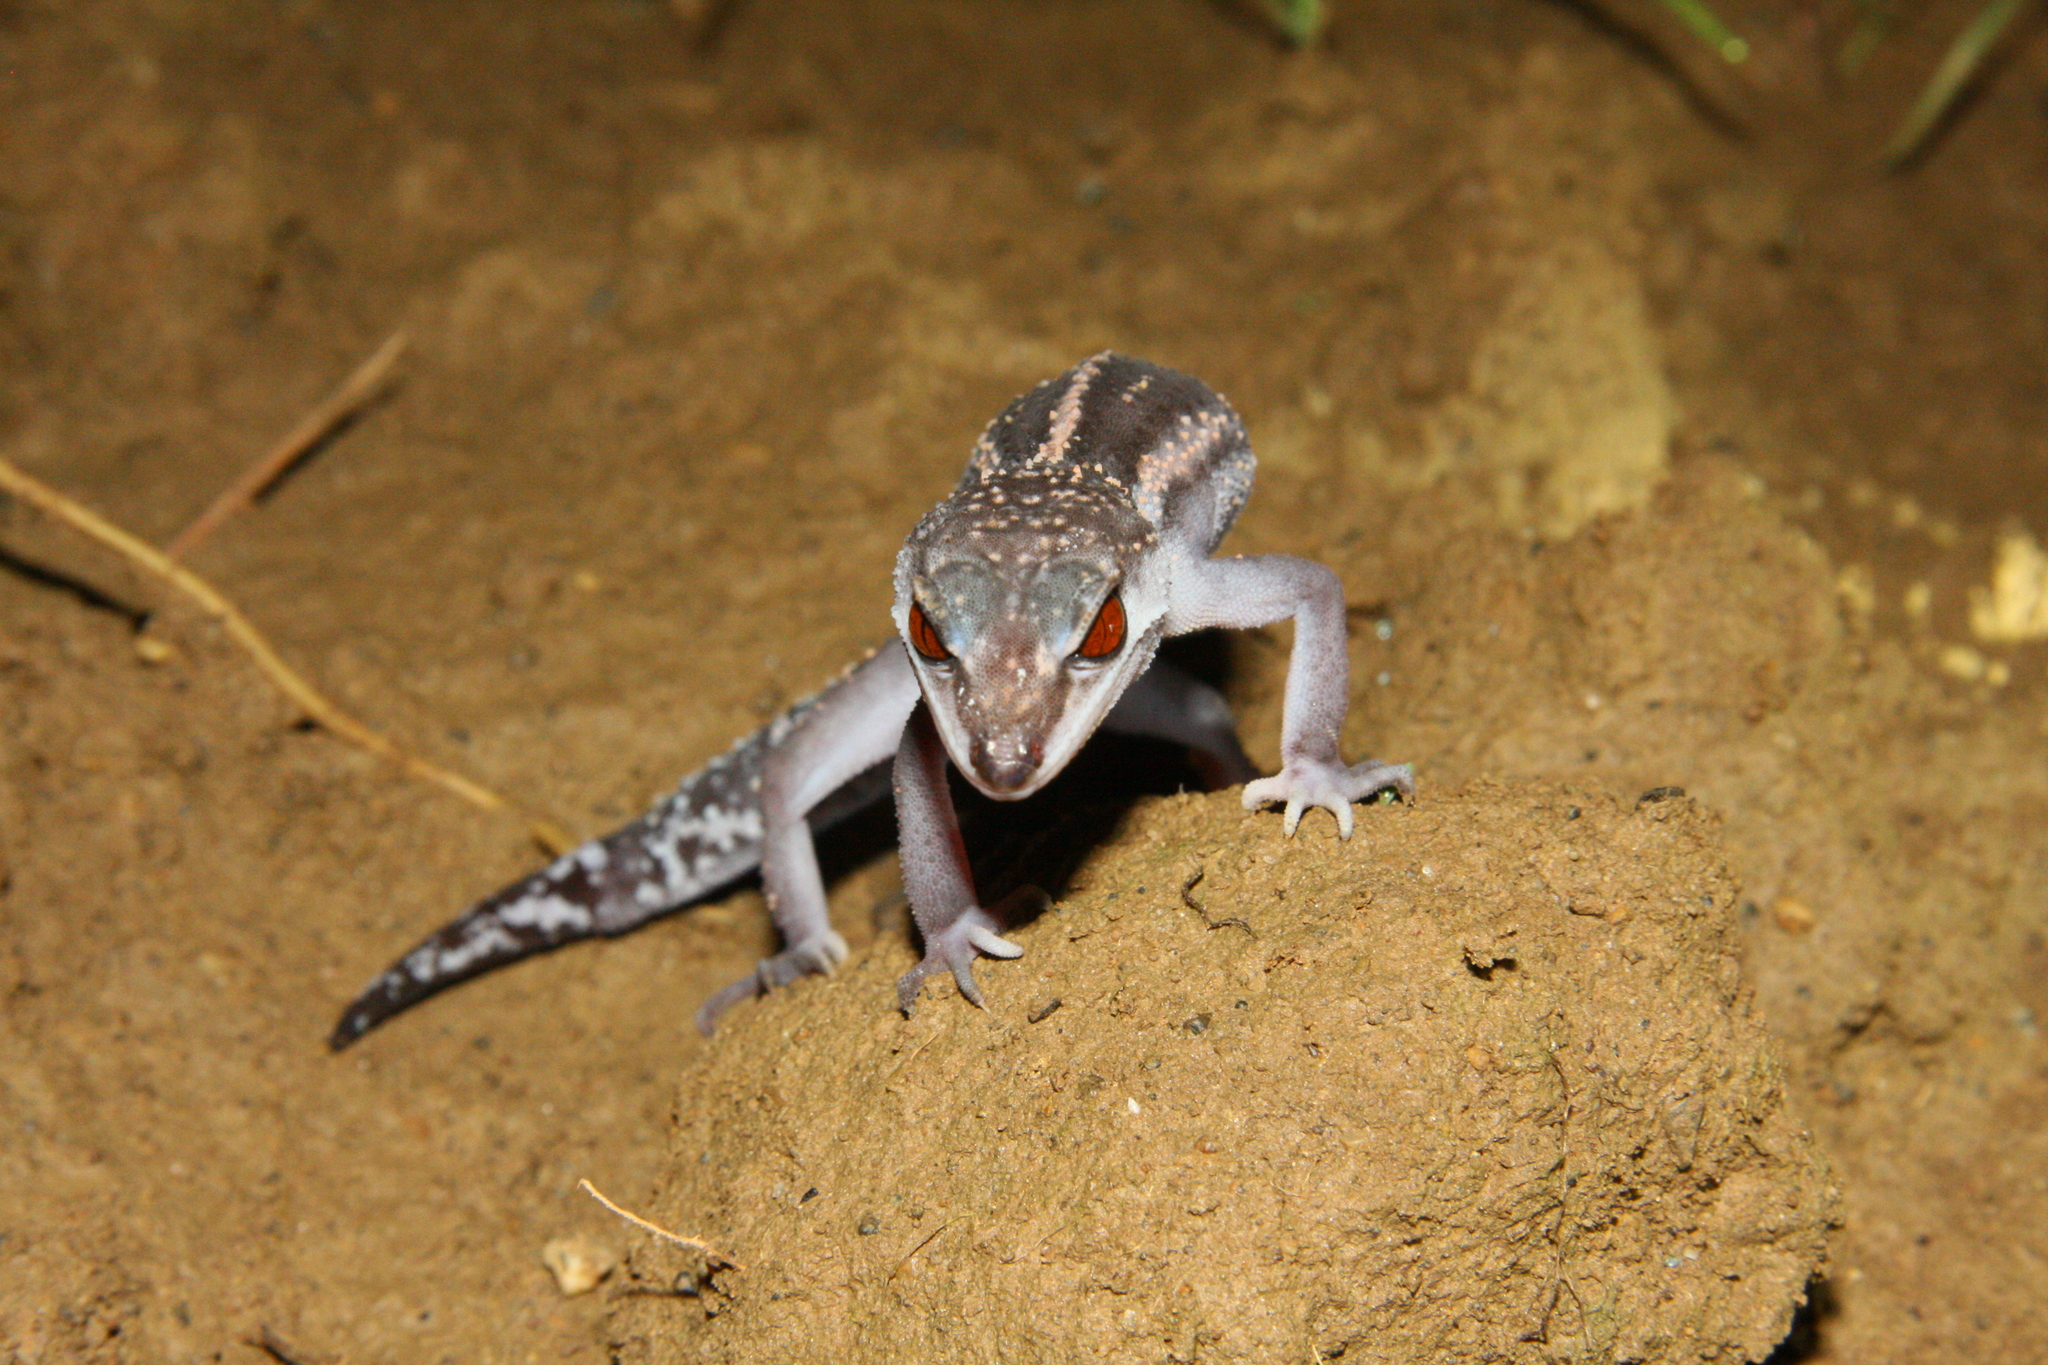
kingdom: Animalia
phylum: Chordata
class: Squamata
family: Eublepharidae
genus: Goniurosaurus
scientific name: Goniurosaurus kuroiwae
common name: Tokashiki gecko
